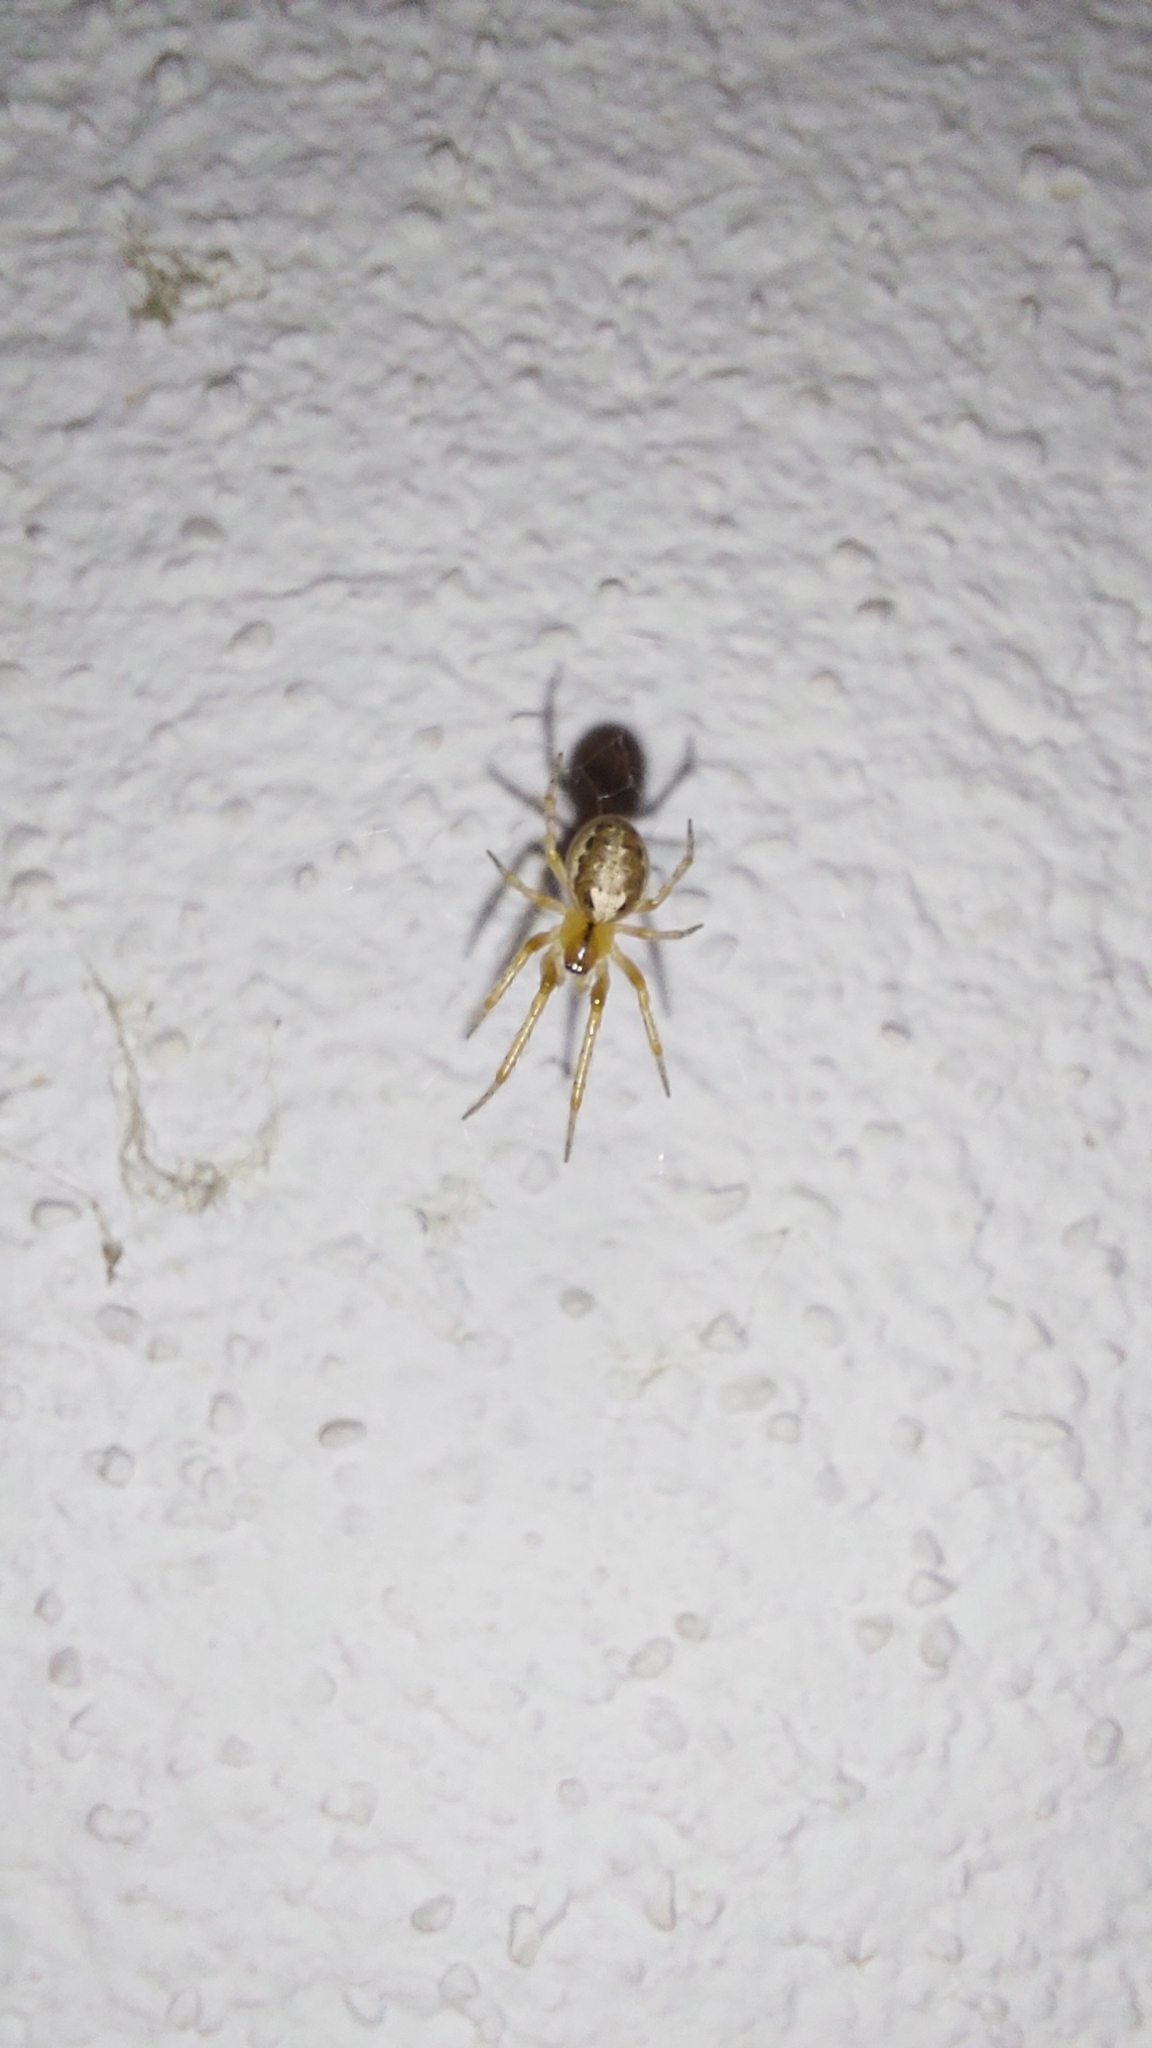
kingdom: Animalia
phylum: Arthropoda
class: Arachnida
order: Araneae
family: Araneidae
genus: Zygiella
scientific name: Zygiella x-notata
